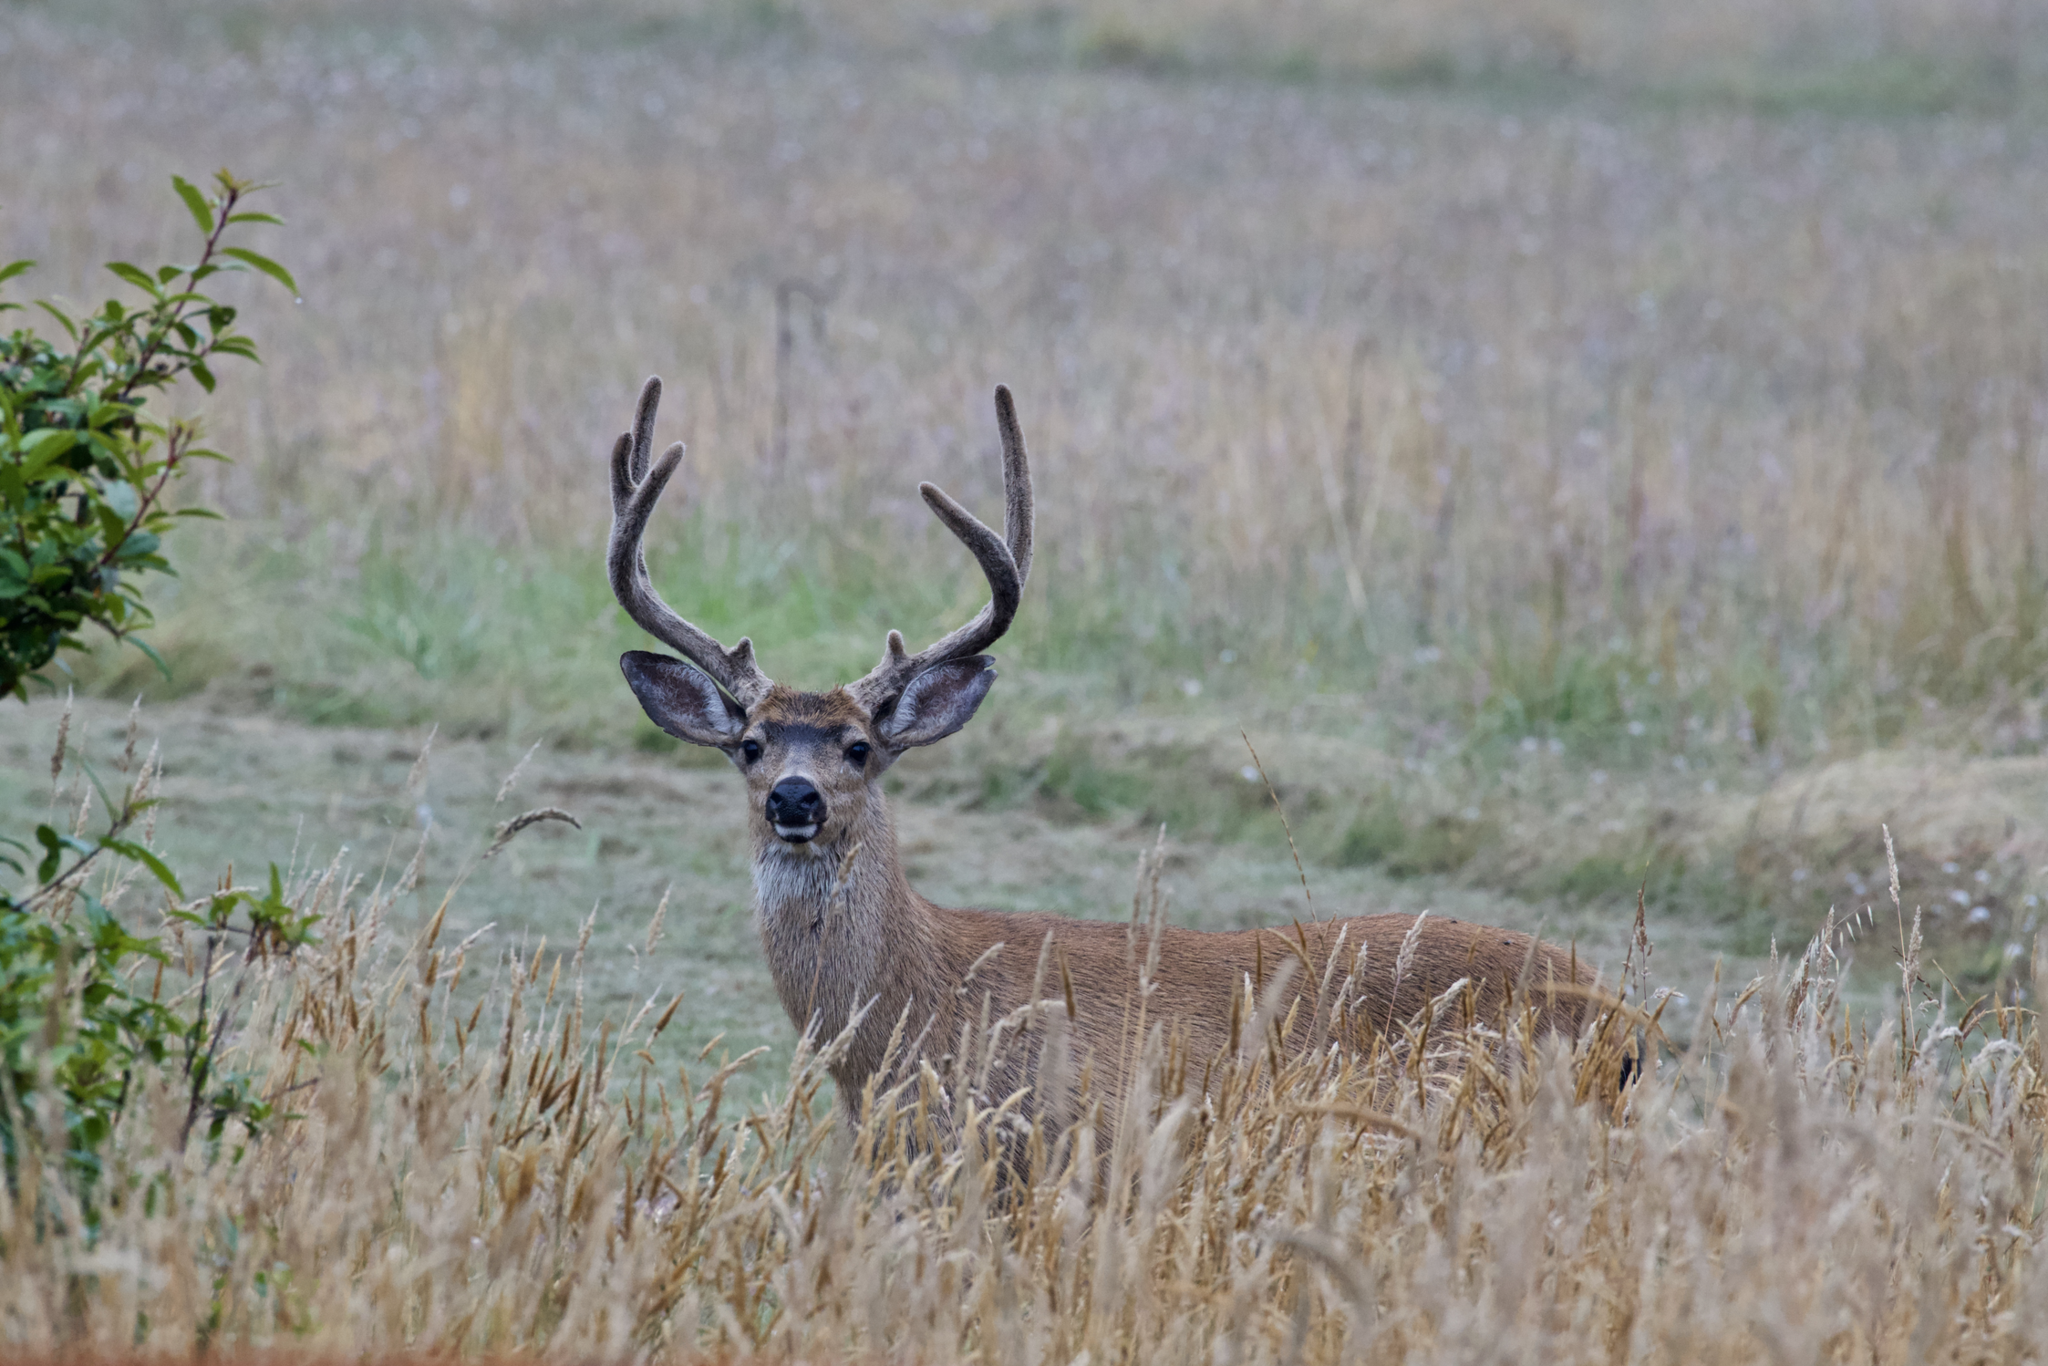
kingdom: Animalia
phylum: Chordata
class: Mammalia
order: Artiodactyla
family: Cervidae
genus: Odocoileus
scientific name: Odocoileus hemionus
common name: Mule deer
